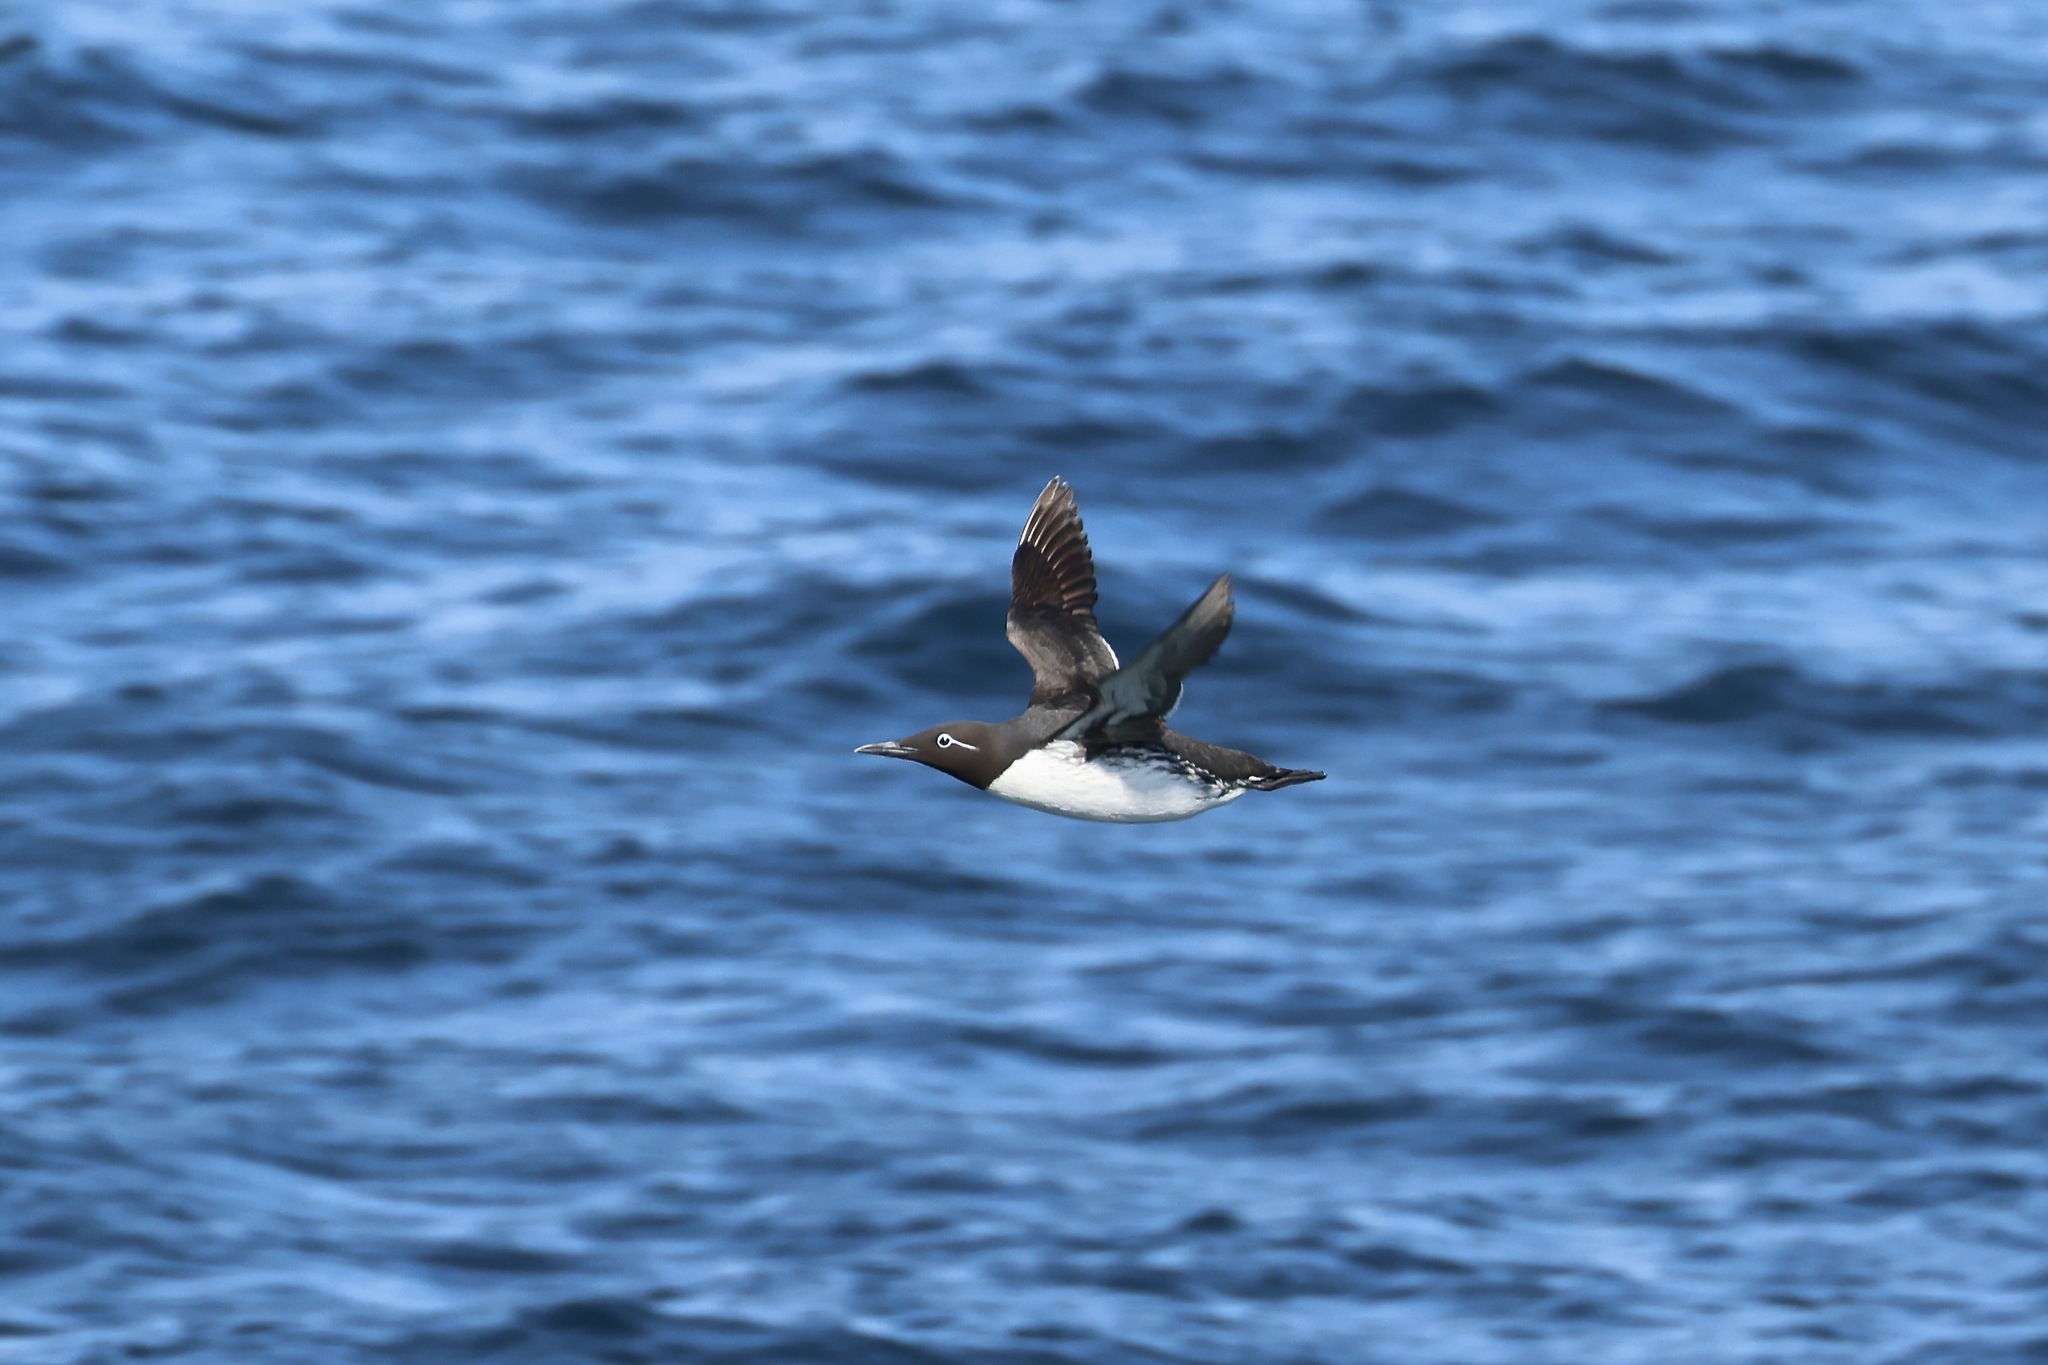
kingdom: Animalia
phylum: Chordata
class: Aves
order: Charadriiformes
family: Alcidae
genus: Uria
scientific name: Uria aalge
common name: Common murre
